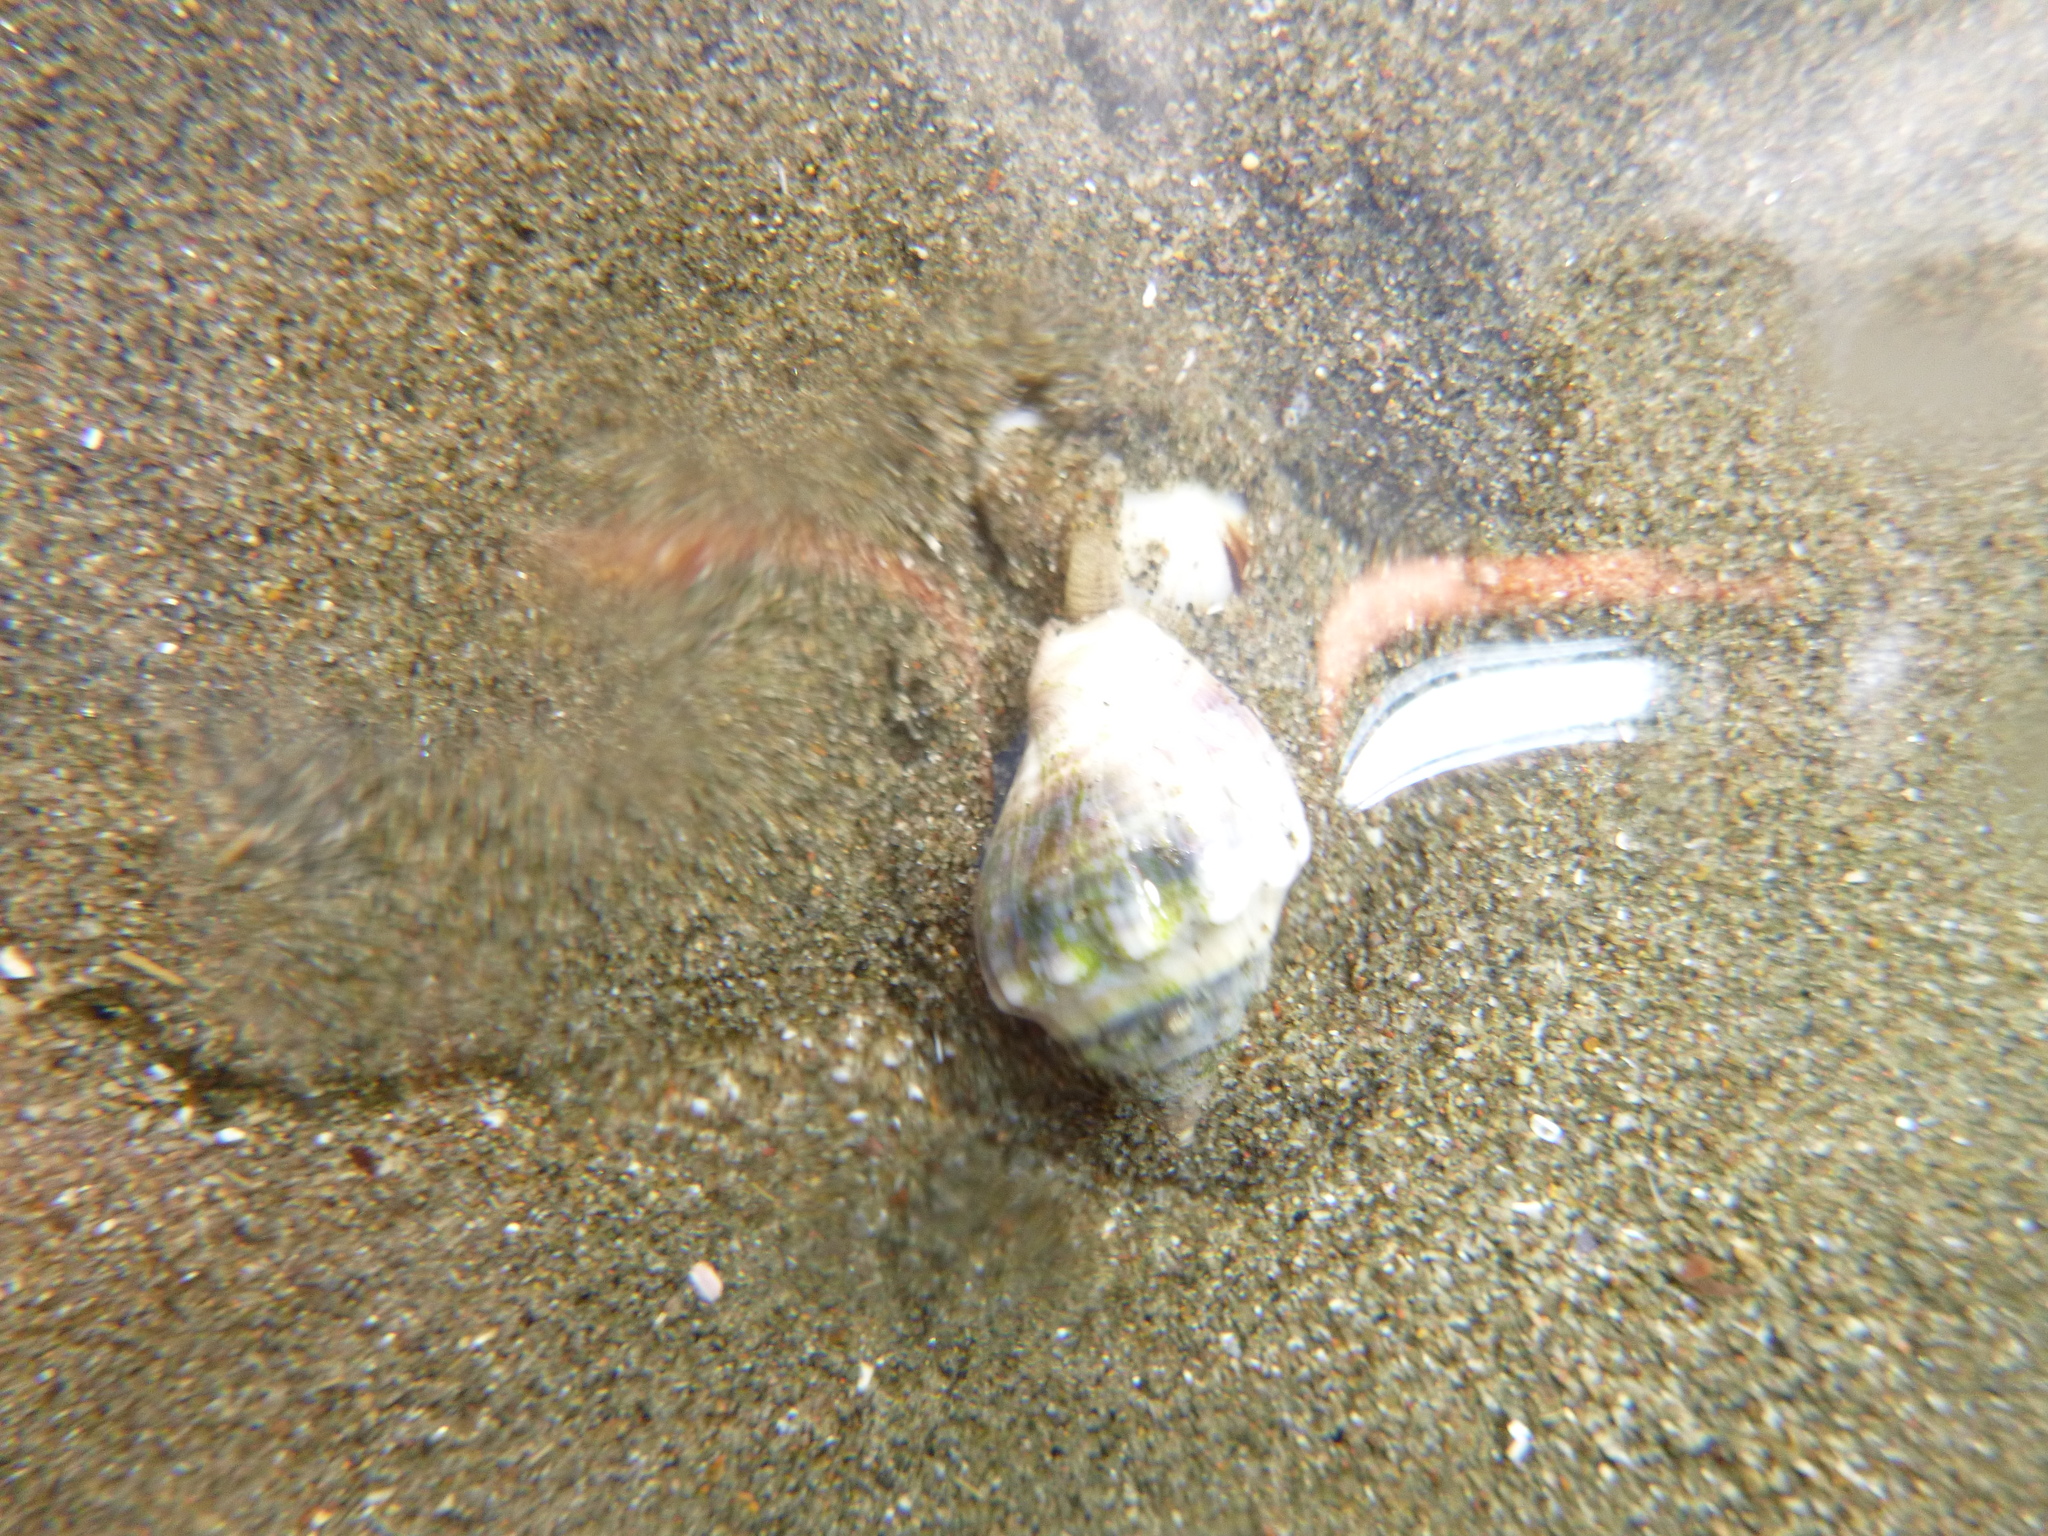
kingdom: Animalia
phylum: Mollusca
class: Gastropoda
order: Neogastropoda
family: Cominellidae
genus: Cominella
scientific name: Cominella glandiformis
